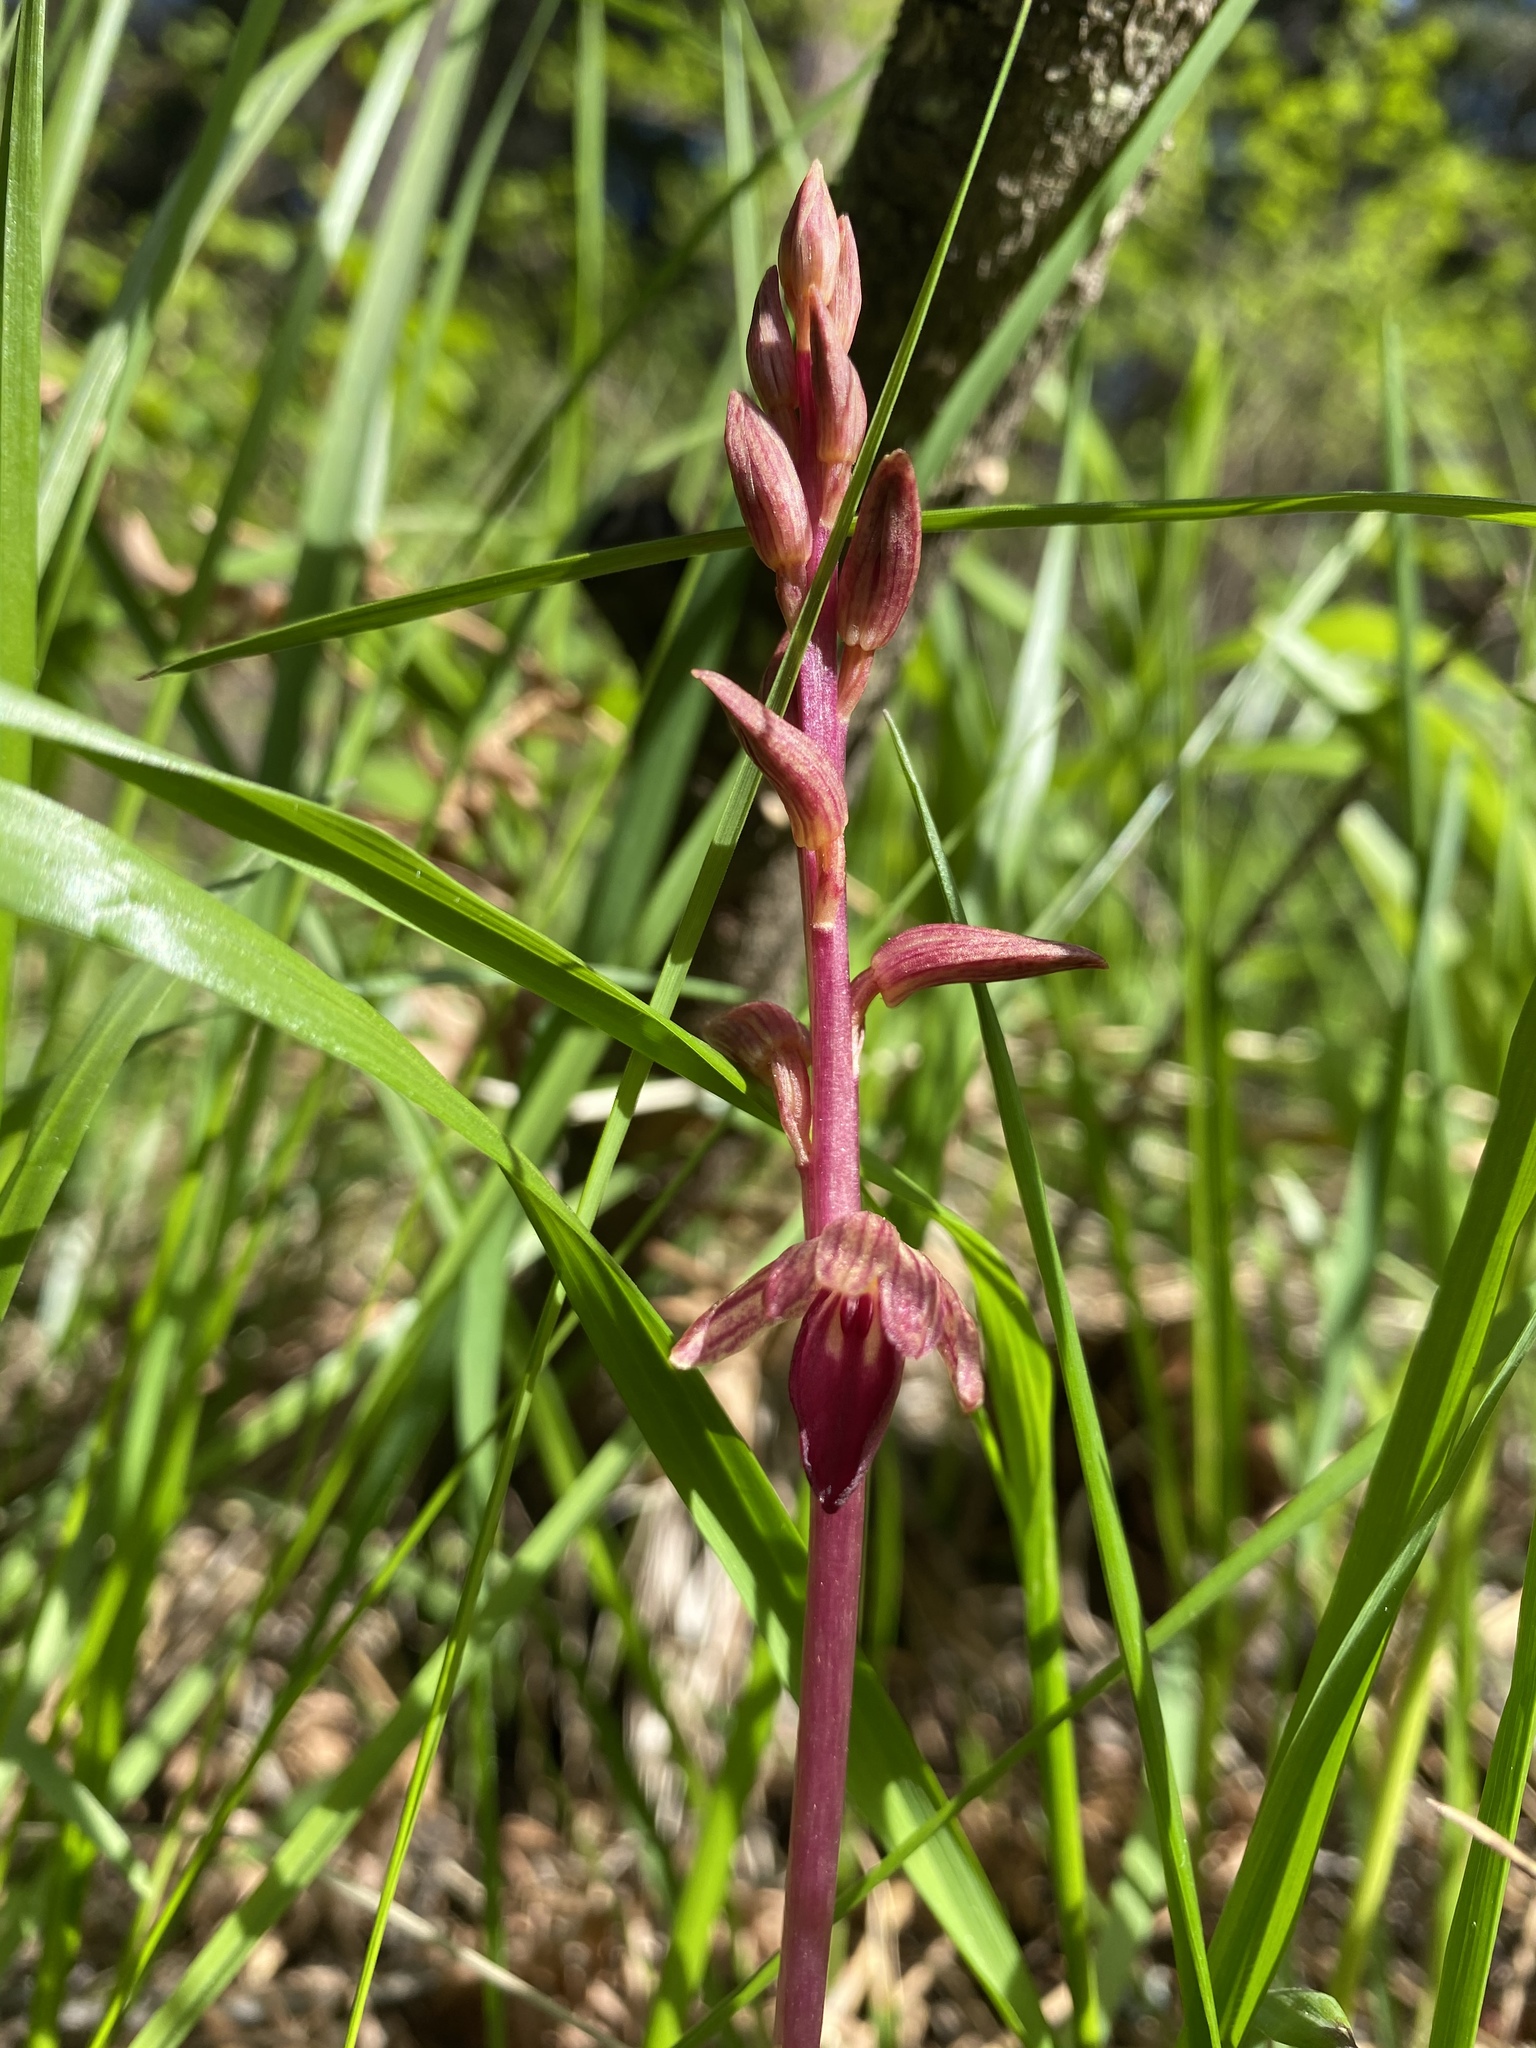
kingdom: Plantae
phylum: Tracheophyta
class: Liliopsida
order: Asparagales
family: Orchidaceae
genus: Corallorhiza
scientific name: Corallorhiza striata
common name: Hooded coralroot
